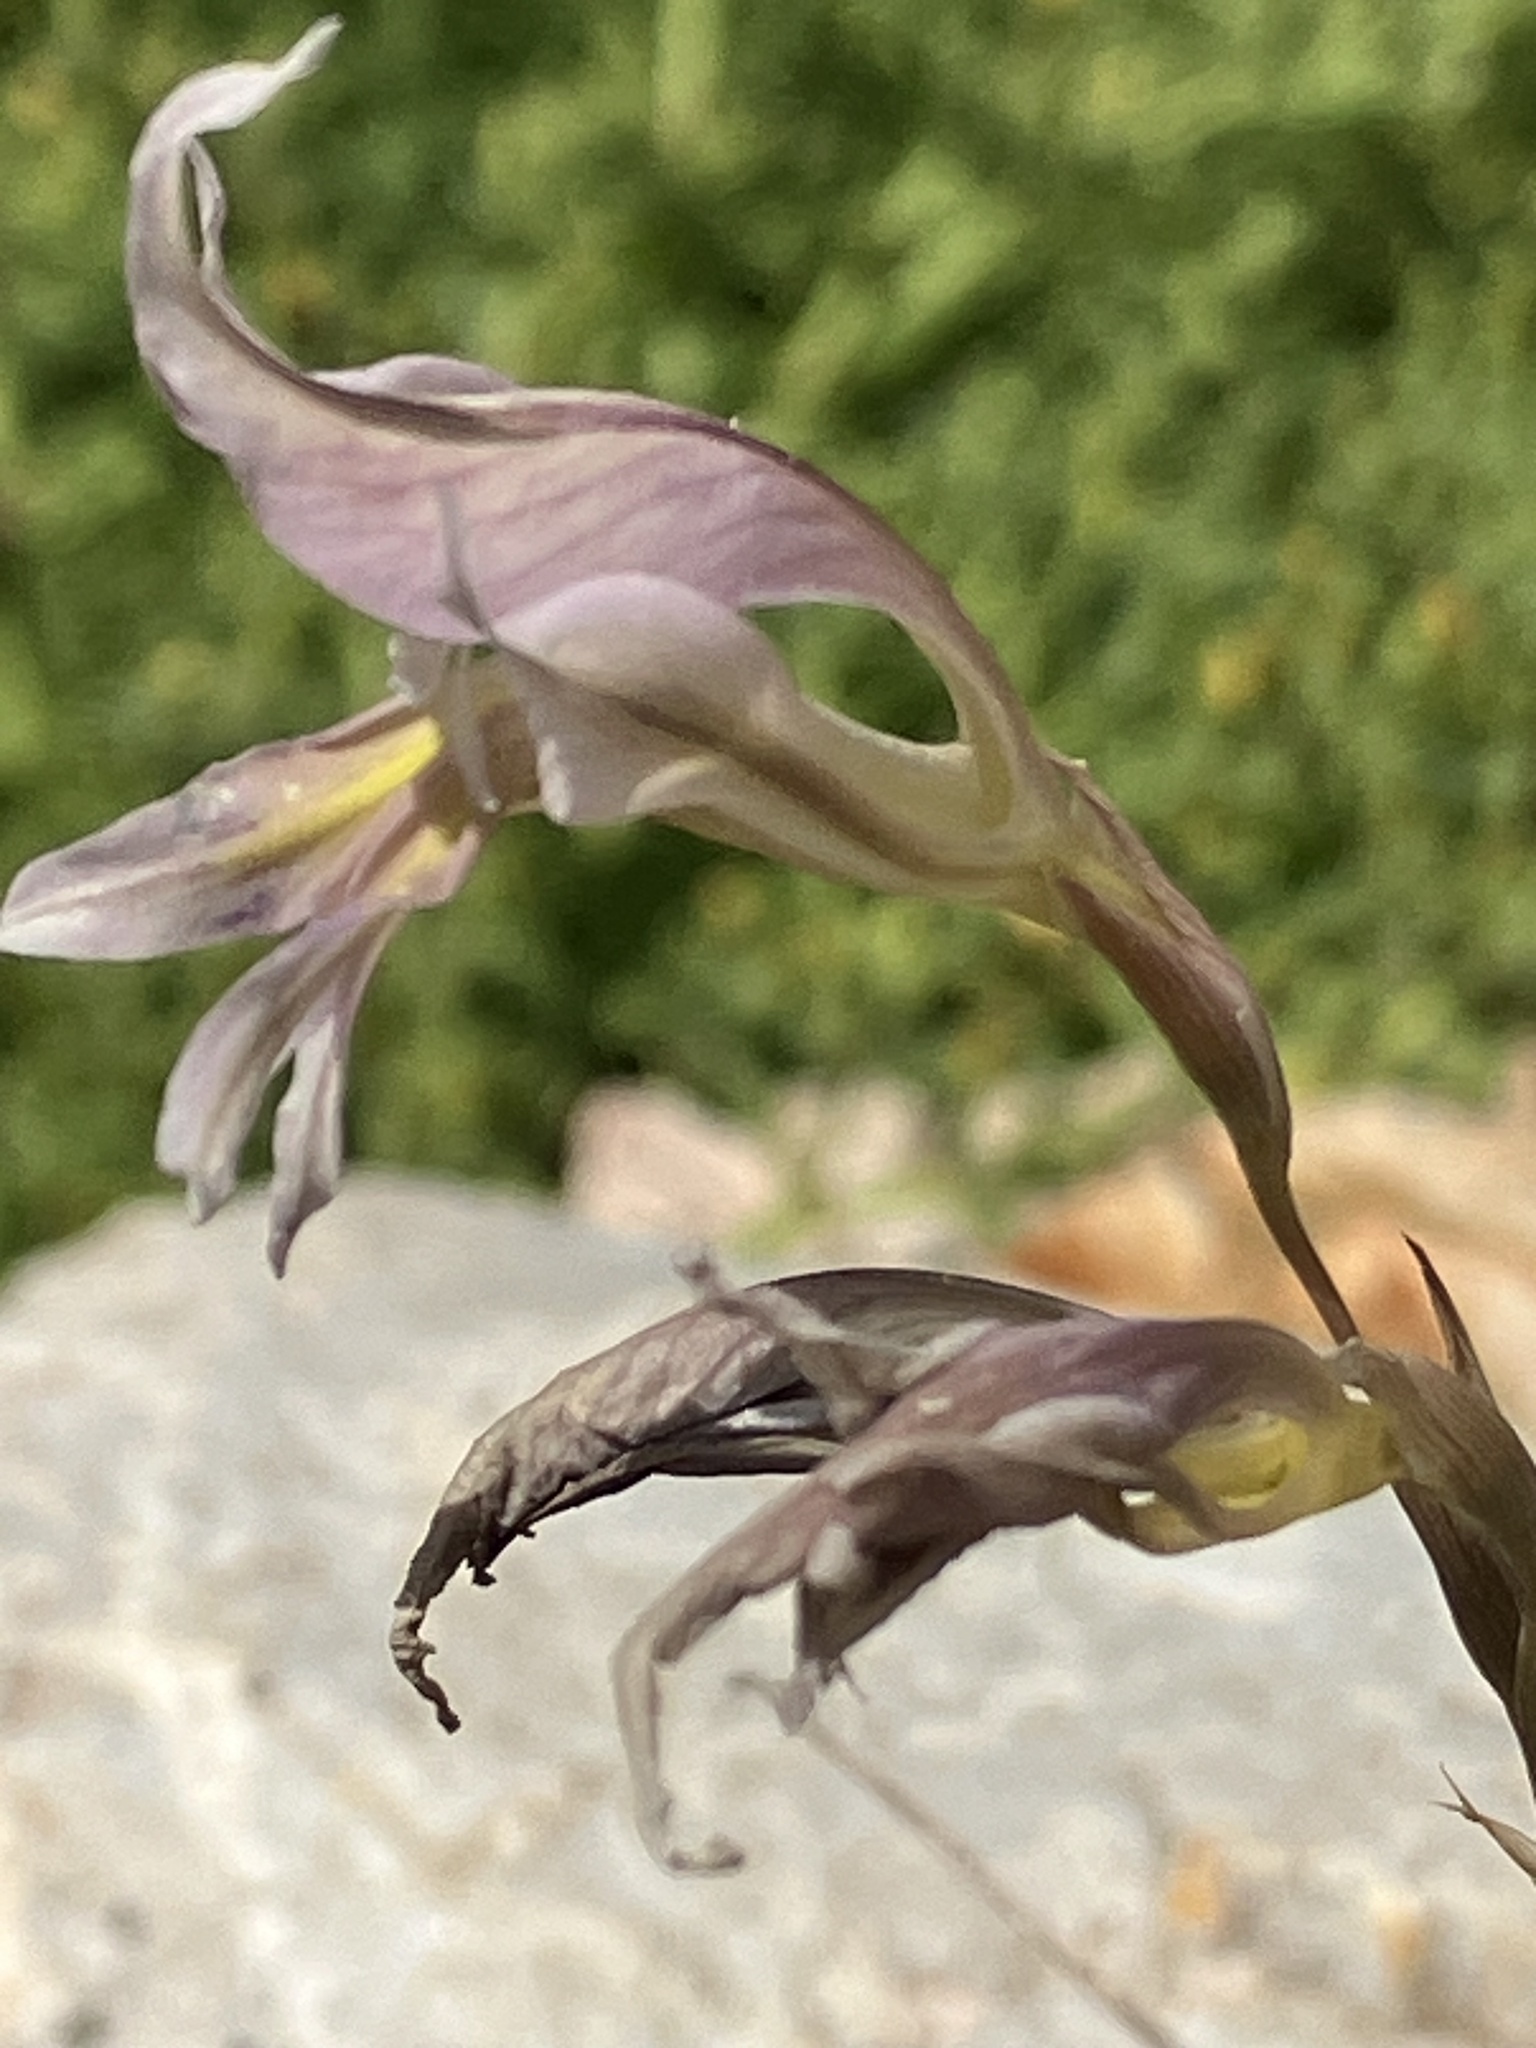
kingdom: Plantae
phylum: Tracheophyta
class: Liliopsida
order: Asparagales
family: Iridaceae
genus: Gladiolus
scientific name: Gladiolus permeabilis
